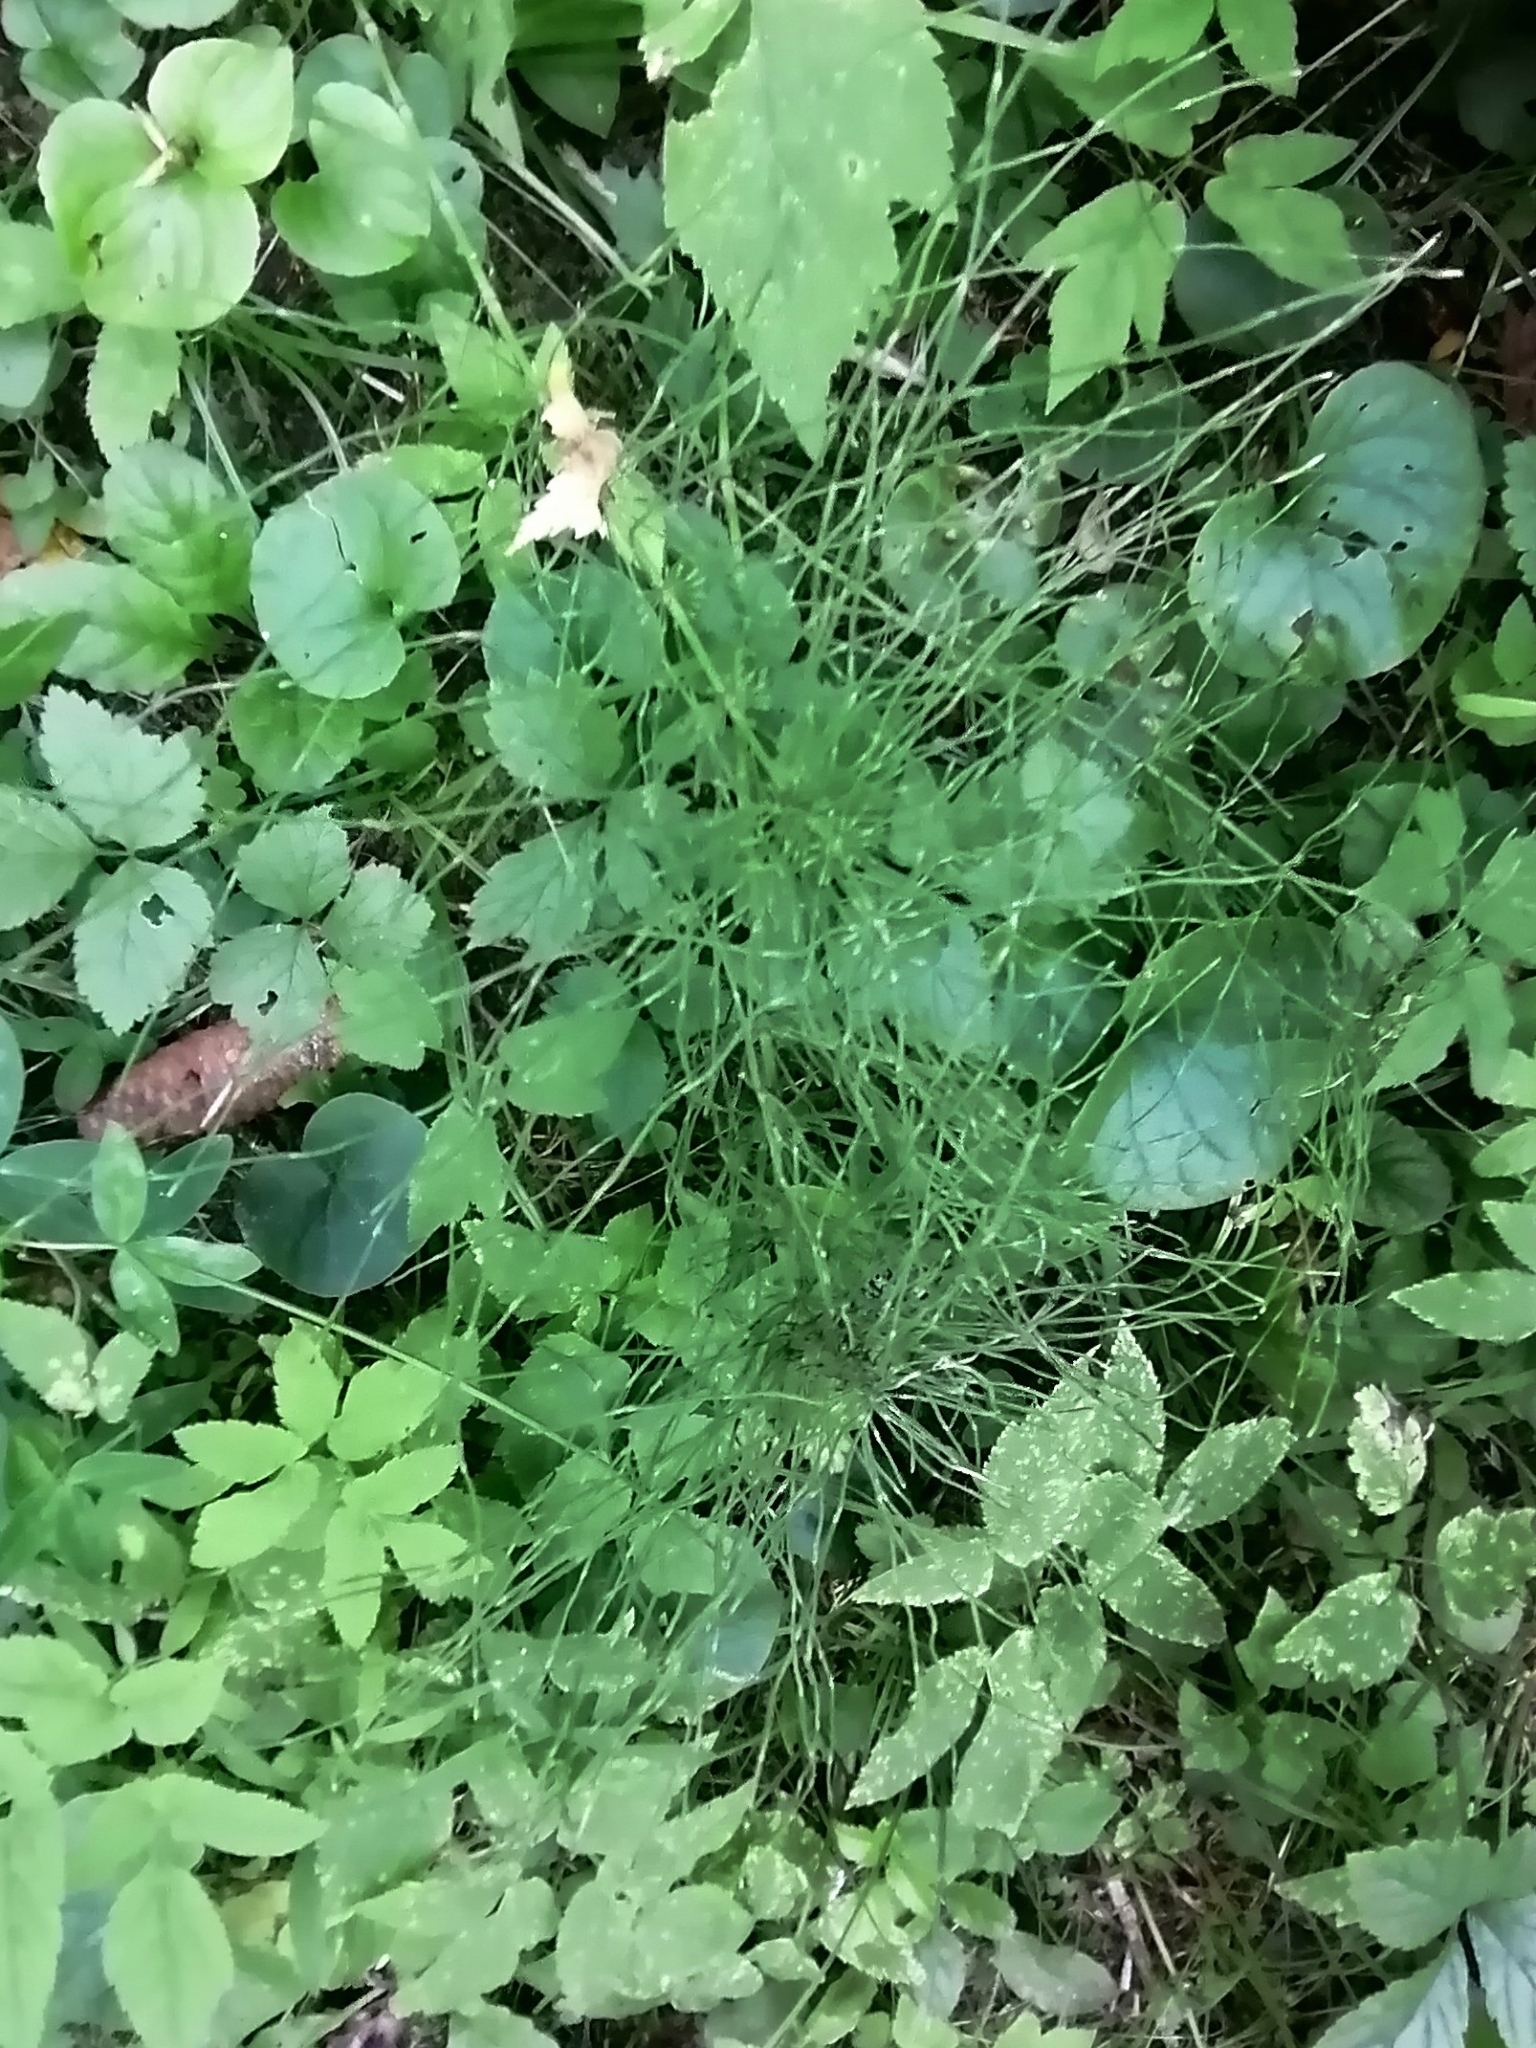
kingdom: Plantae
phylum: Tracheophyta
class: Polypodiopsida
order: Equisetales
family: Equisetaceae
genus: Equisetum
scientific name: Equisetum pratense
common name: Meadow horsetail
